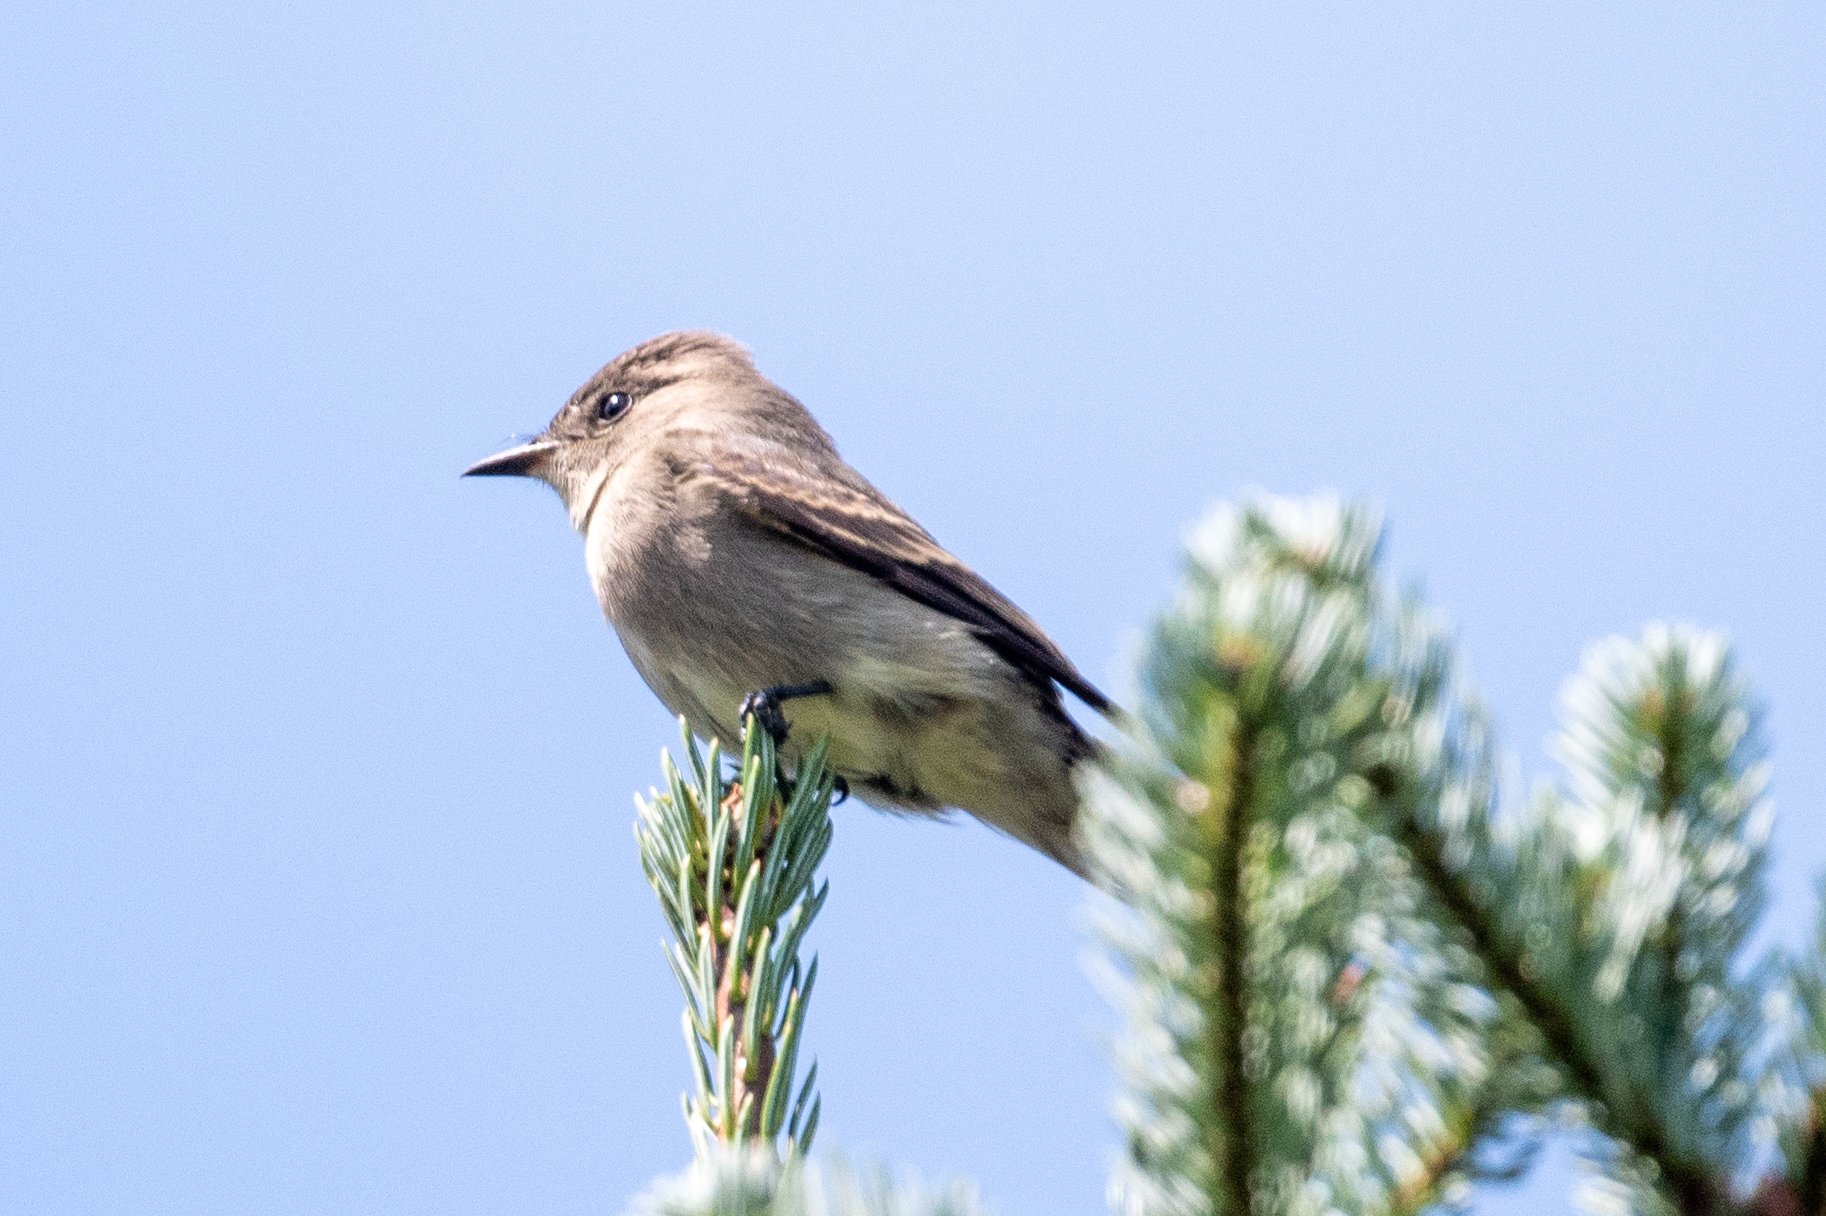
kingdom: Animalia
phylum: Chordata
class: Aves
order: Passeriformes
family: Tyrannidae
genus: Contopus
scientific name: Contopus sordidulus
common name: Western wood-pewee
